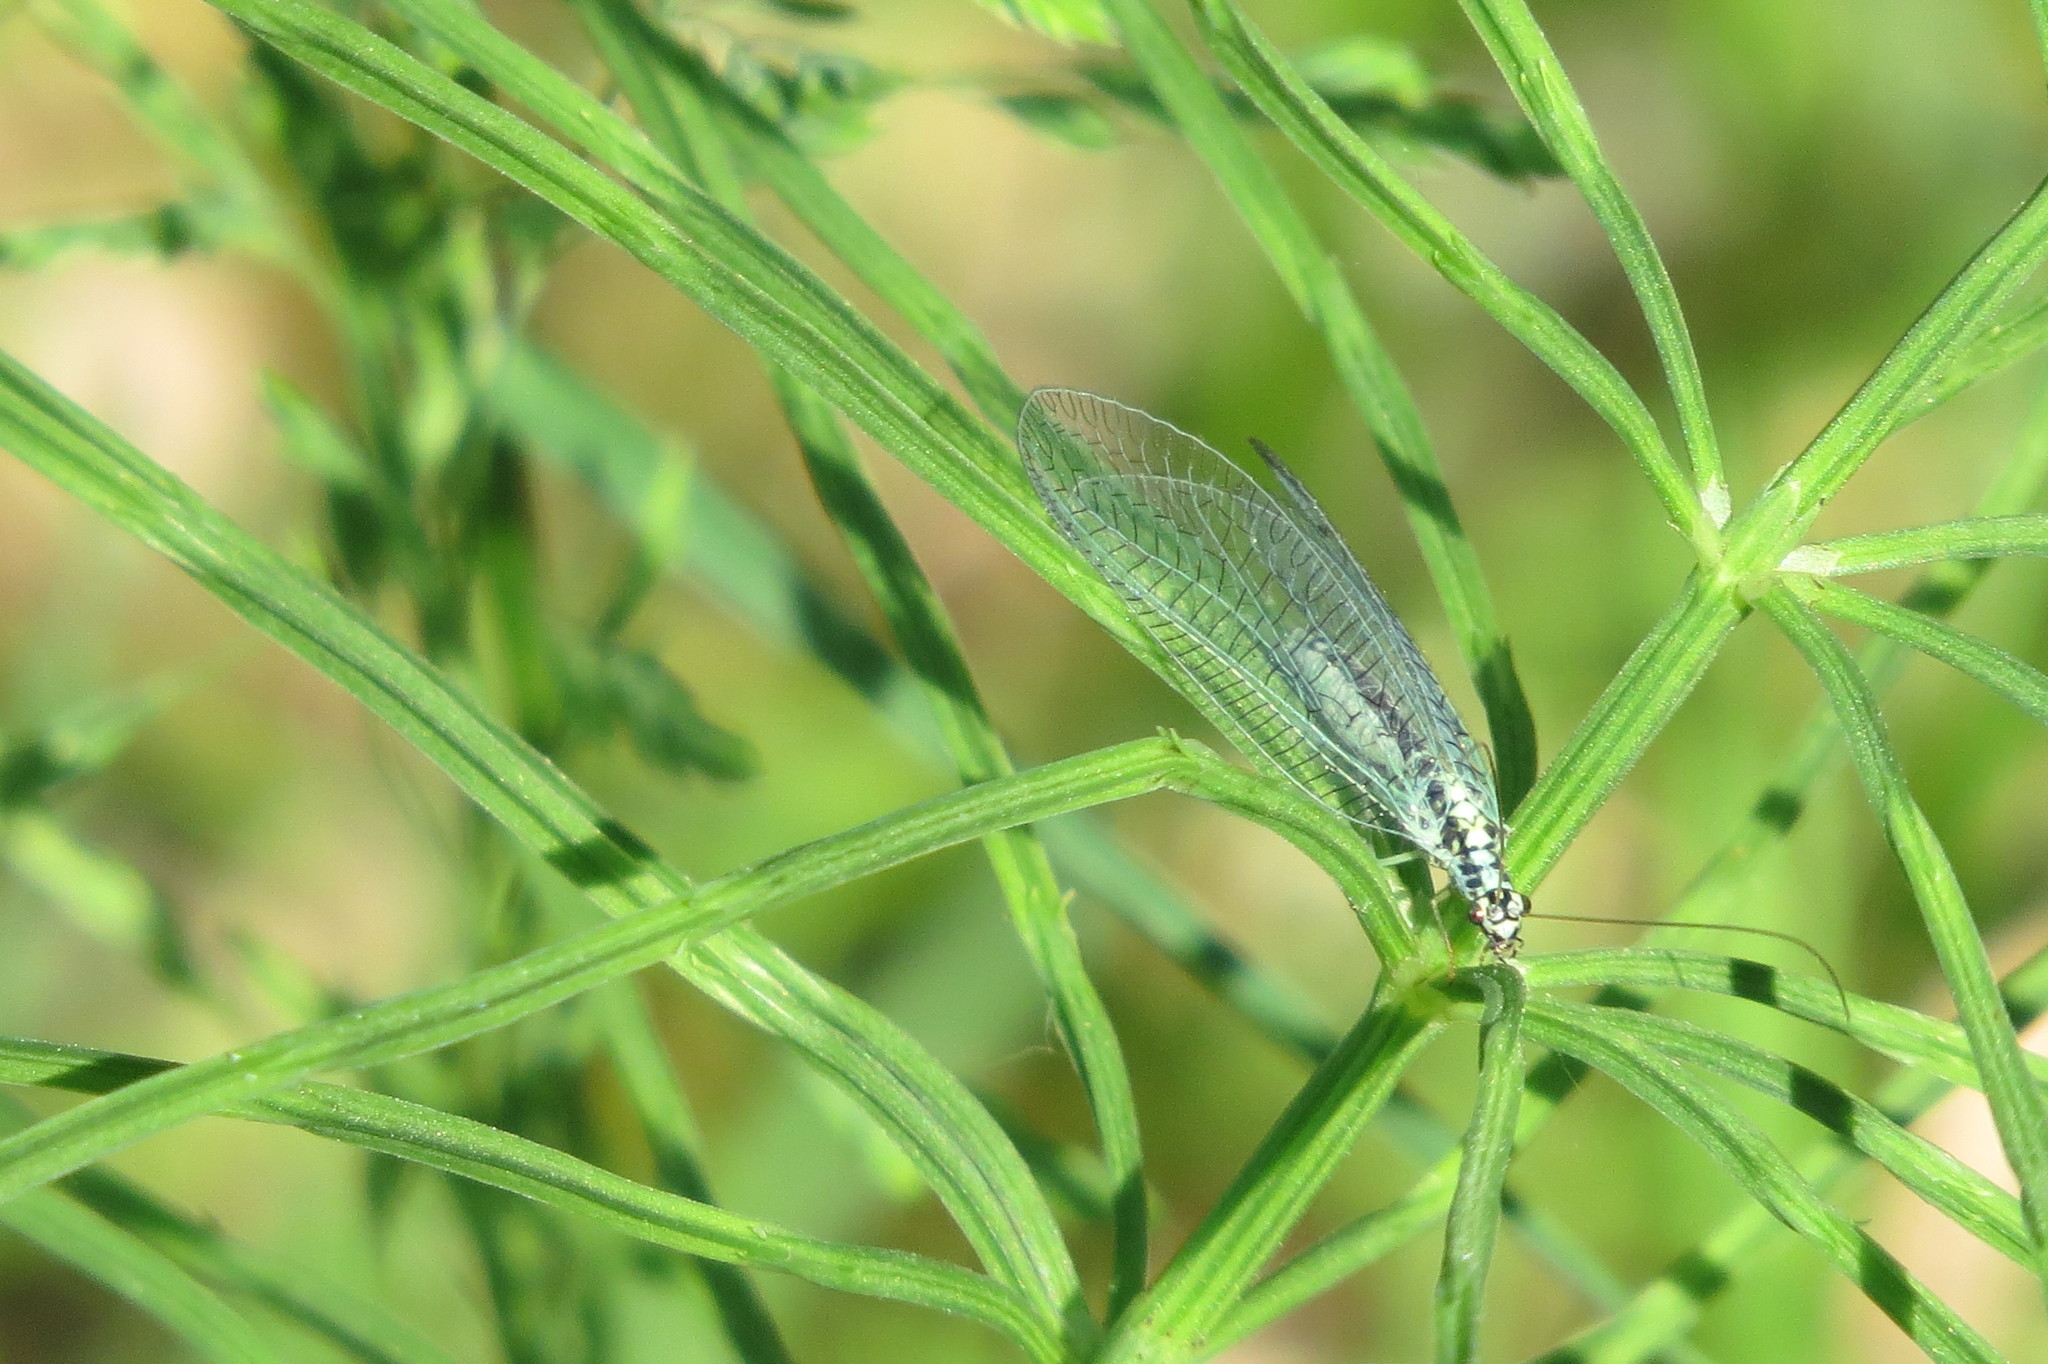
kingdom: Animalia
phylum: Arthropoda
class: Insecta
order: Neuroptera
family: Chrysopidae
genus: Chrysopa
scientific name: Chrysopa perla
